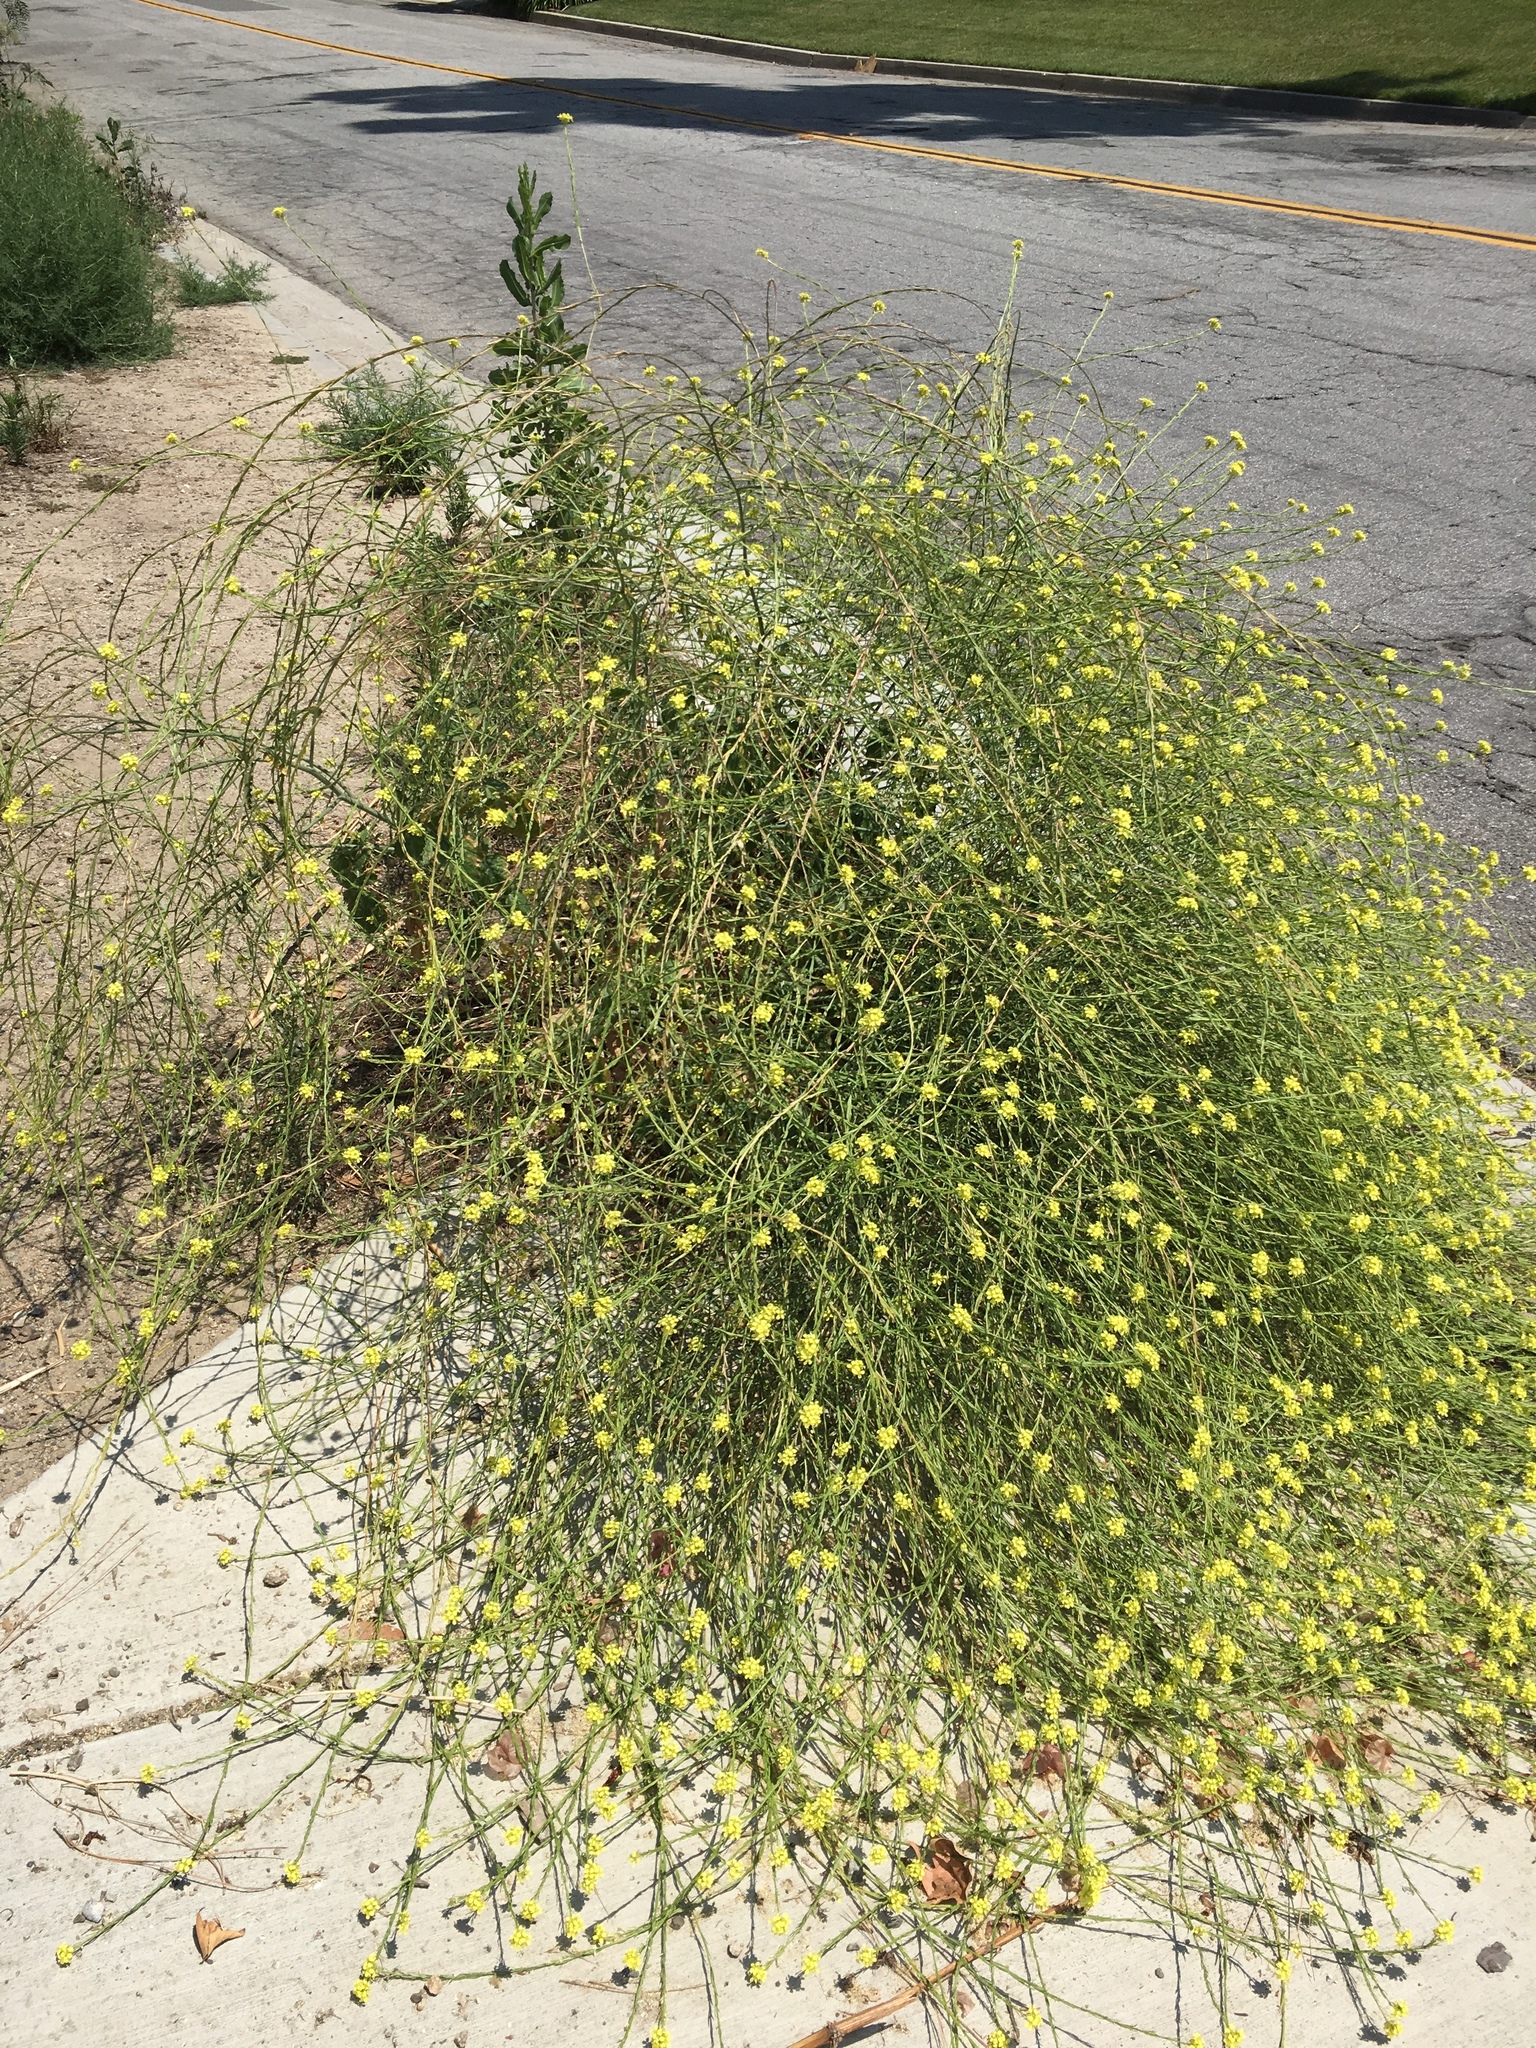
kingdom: Plantae
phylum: Tracheophyta
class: Magnoliopsida
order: Brassicales
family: Brassicaceae
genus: Hirschfeldia
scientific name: Hirschfeldia incana
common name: Hoary mustard
